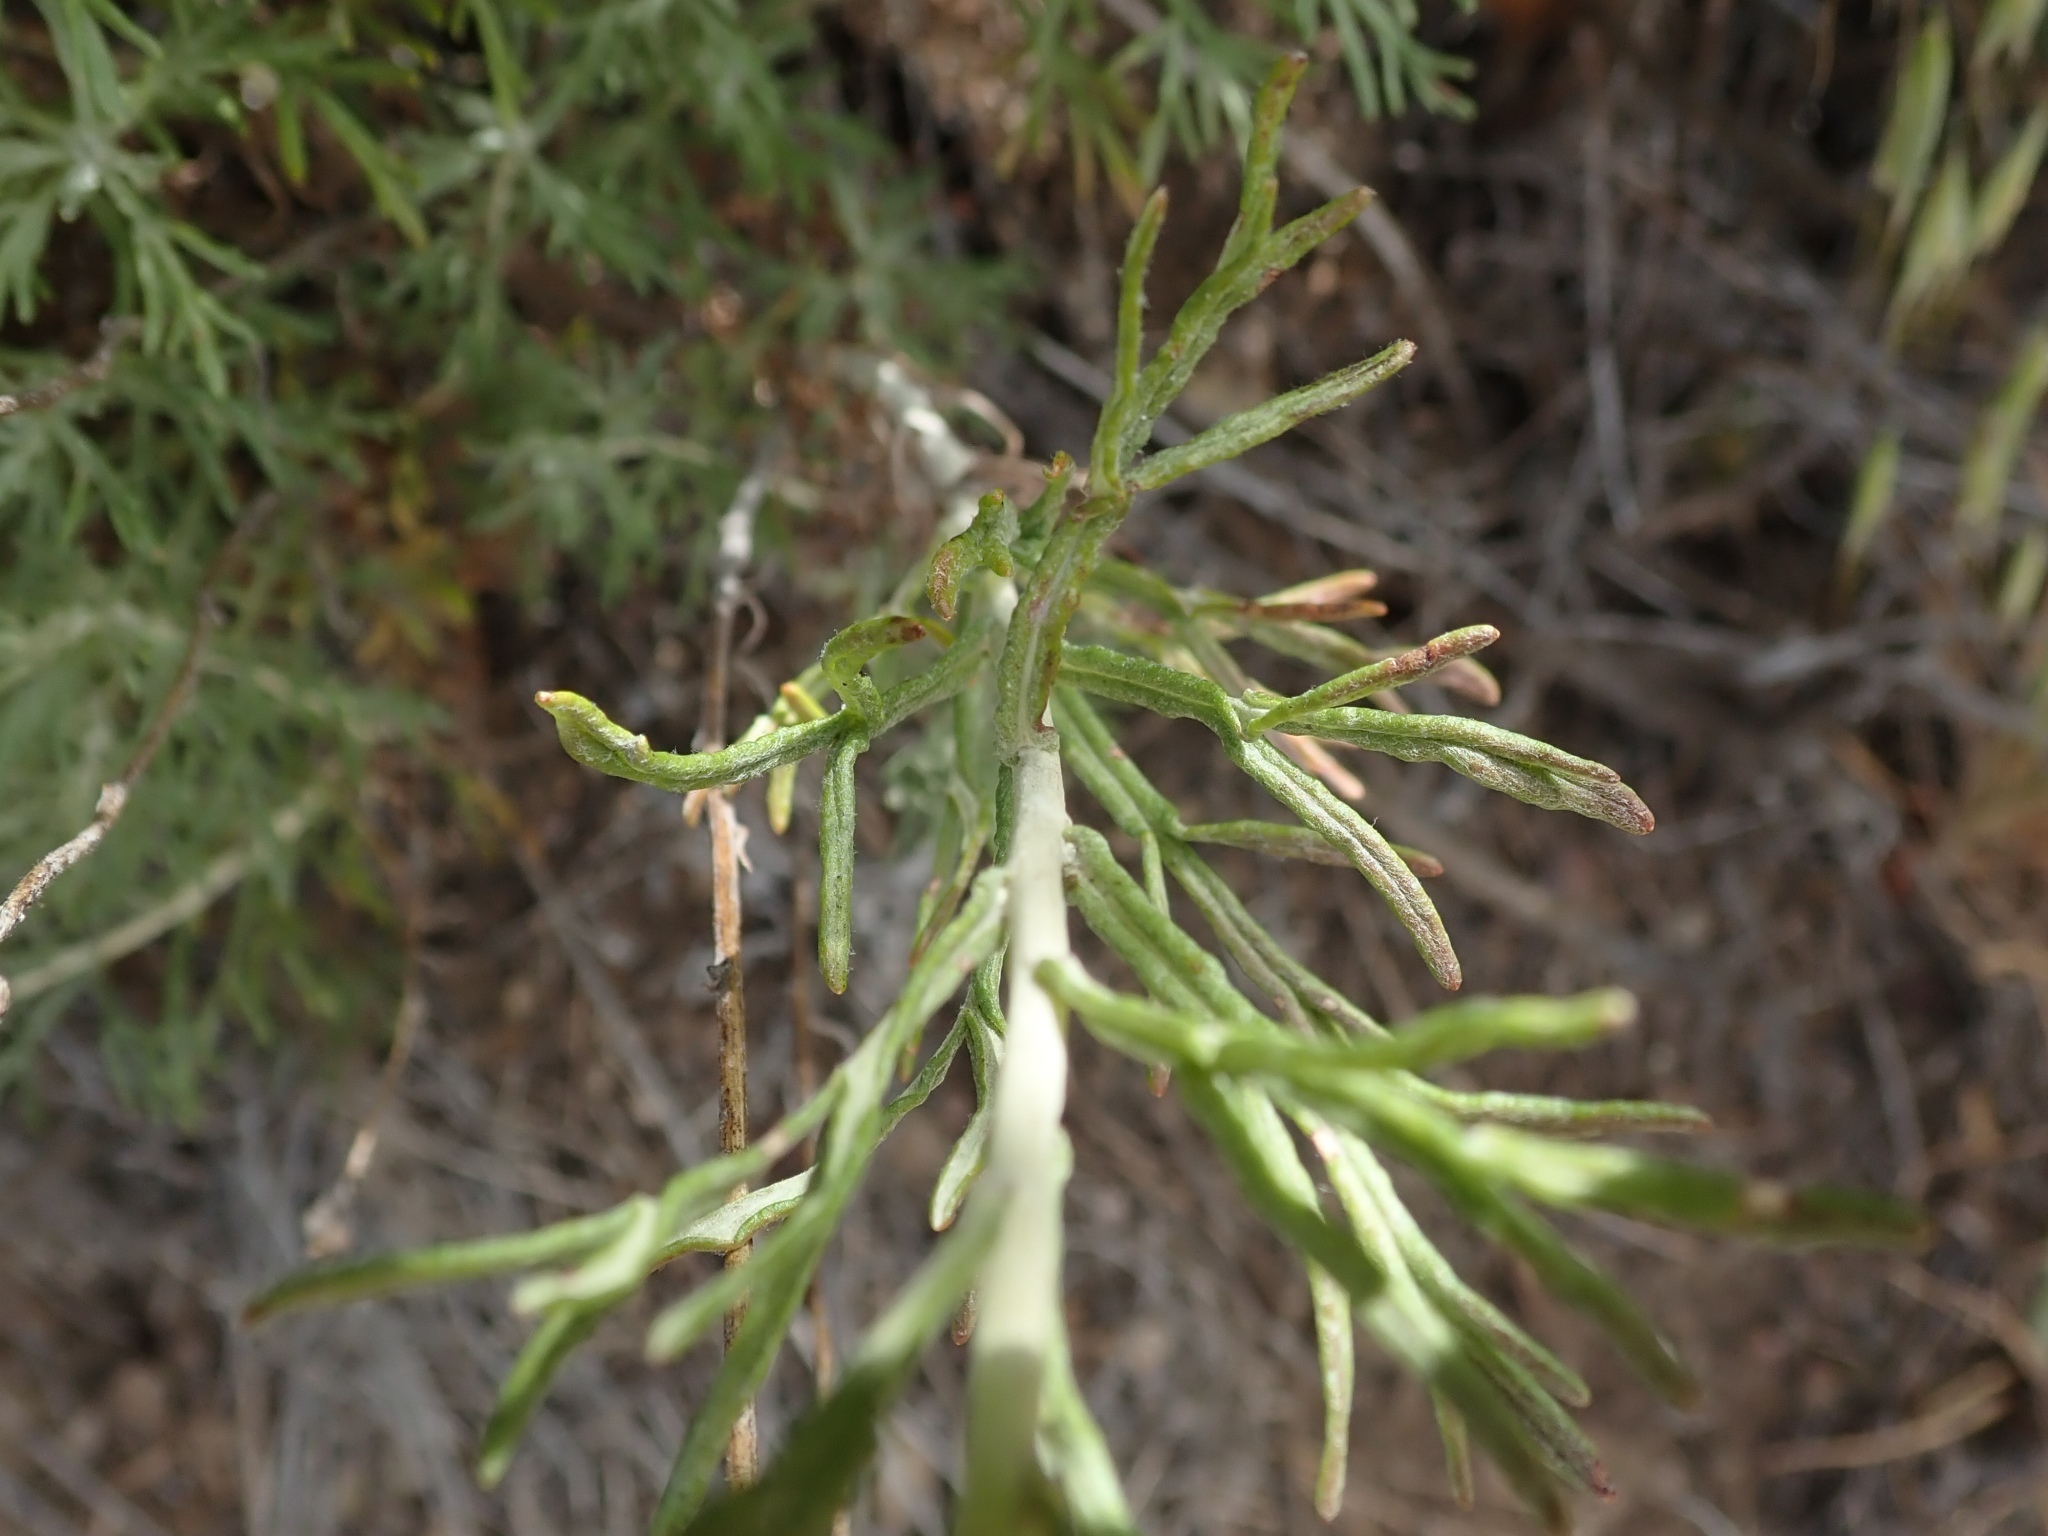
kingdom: Plantae
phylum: Tracheophyta
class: Magnoliopsida
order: Asterales
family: Asteraceae
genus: Eriophyllum
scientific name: Eriophyllum confertiflorum
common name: Golden-yarrow
